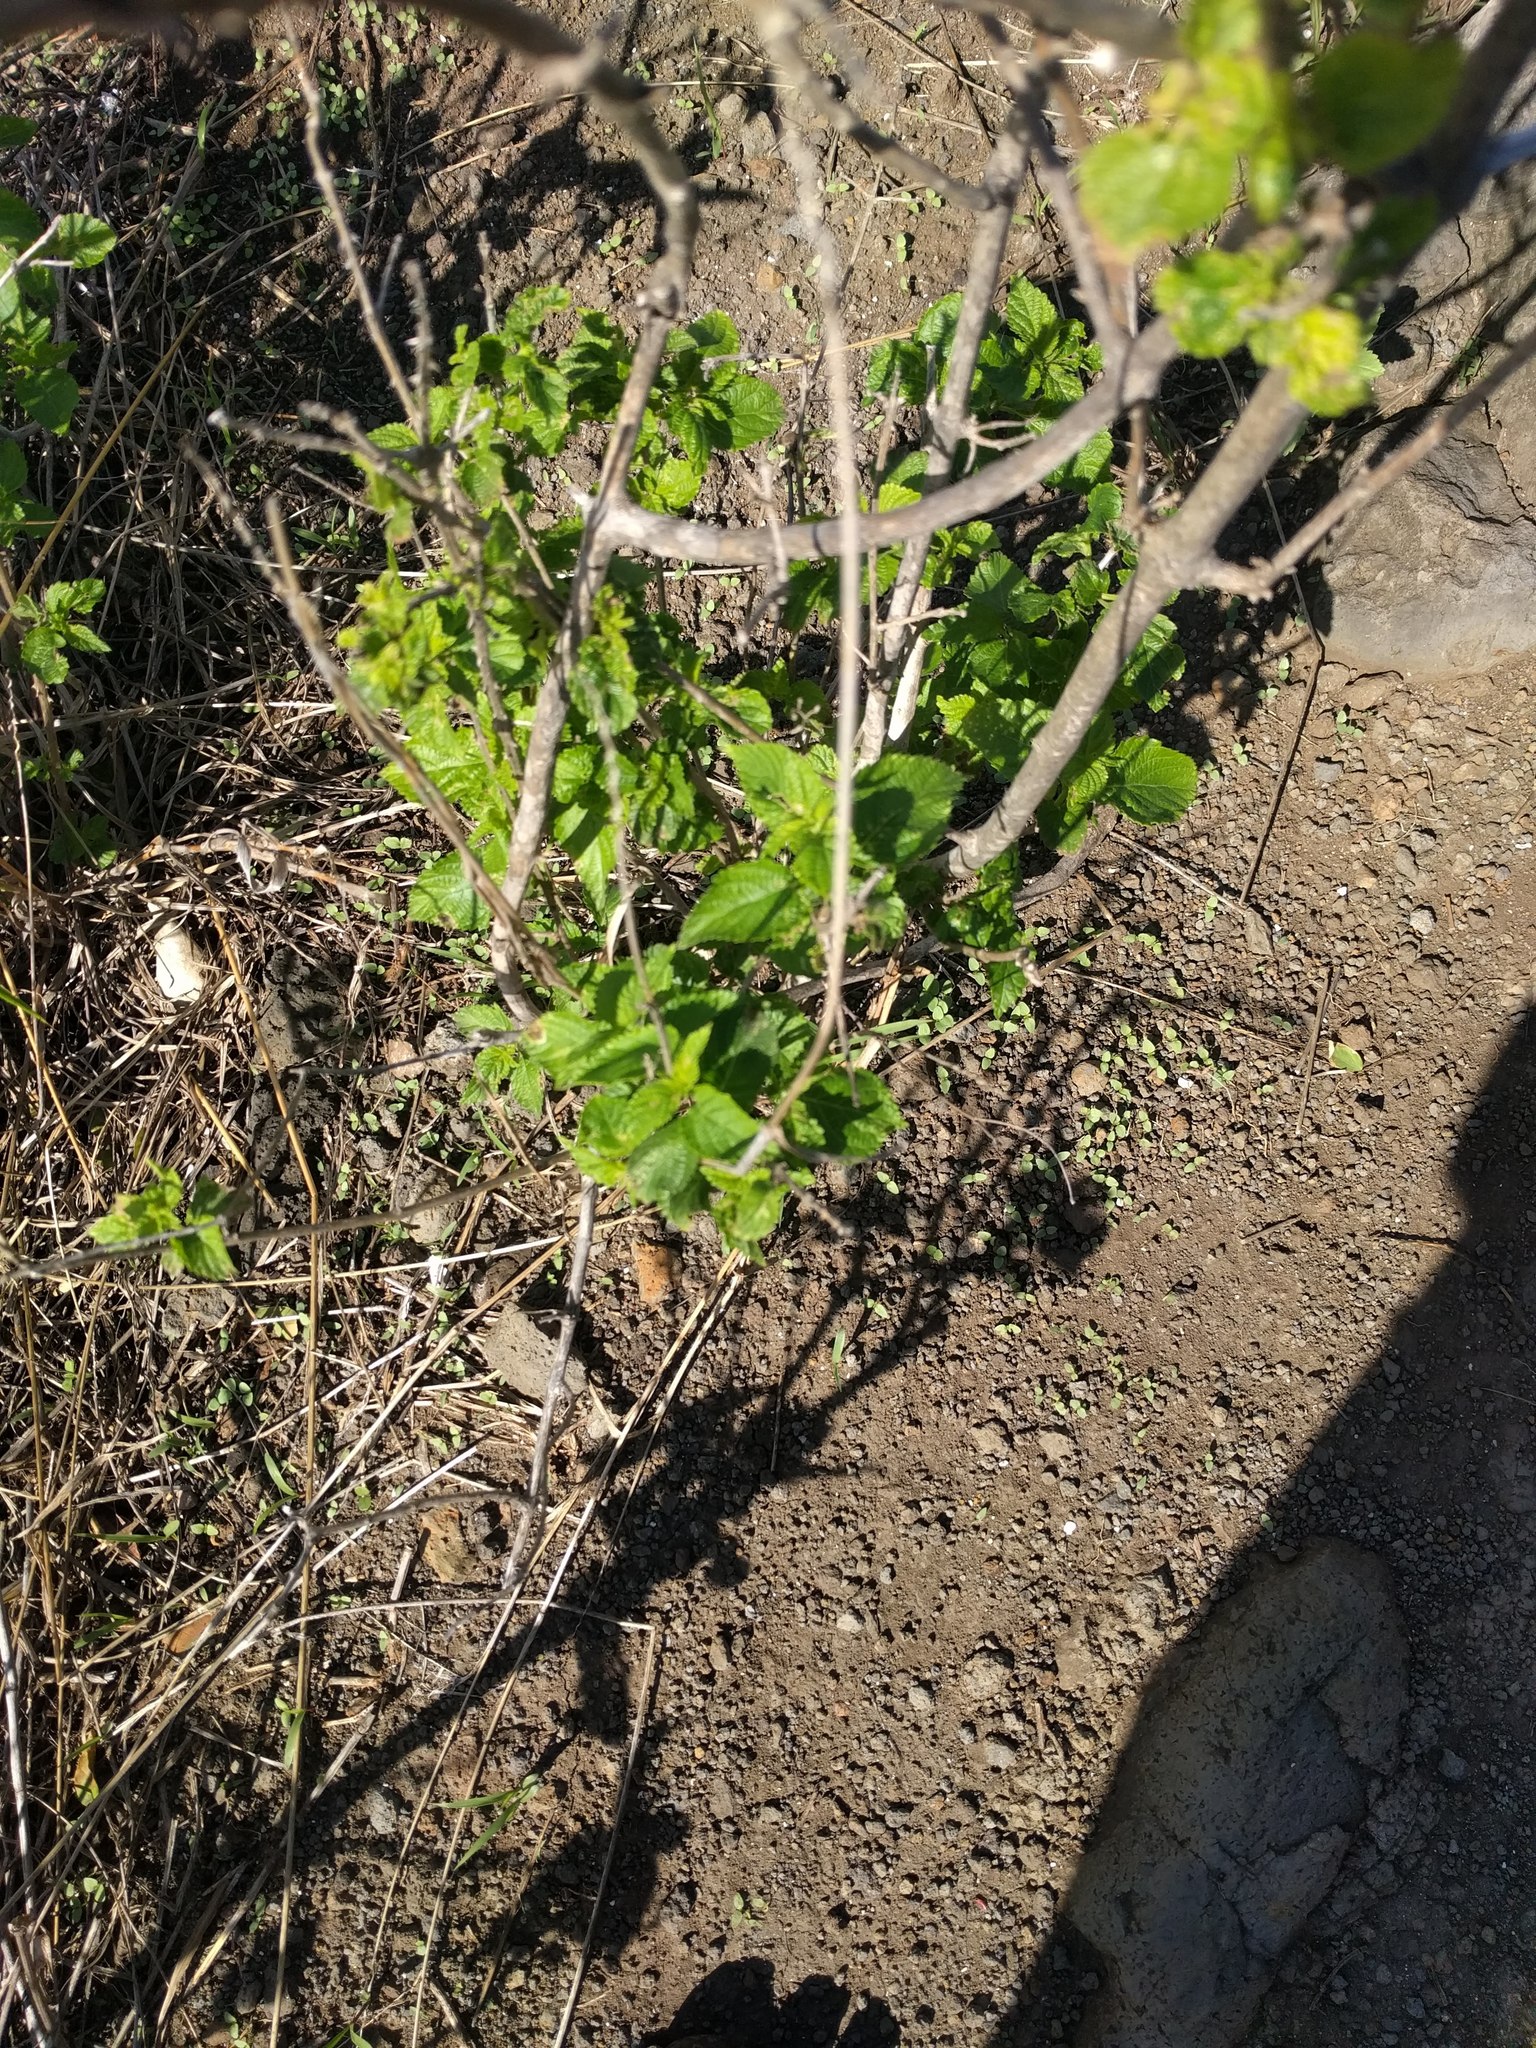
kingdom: Plantae
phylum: Tracheophyta
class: Magnoliopsida
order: Lamiales
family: Verbenaceae
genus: Lantana
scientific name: Lantana camara
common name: Lantana
